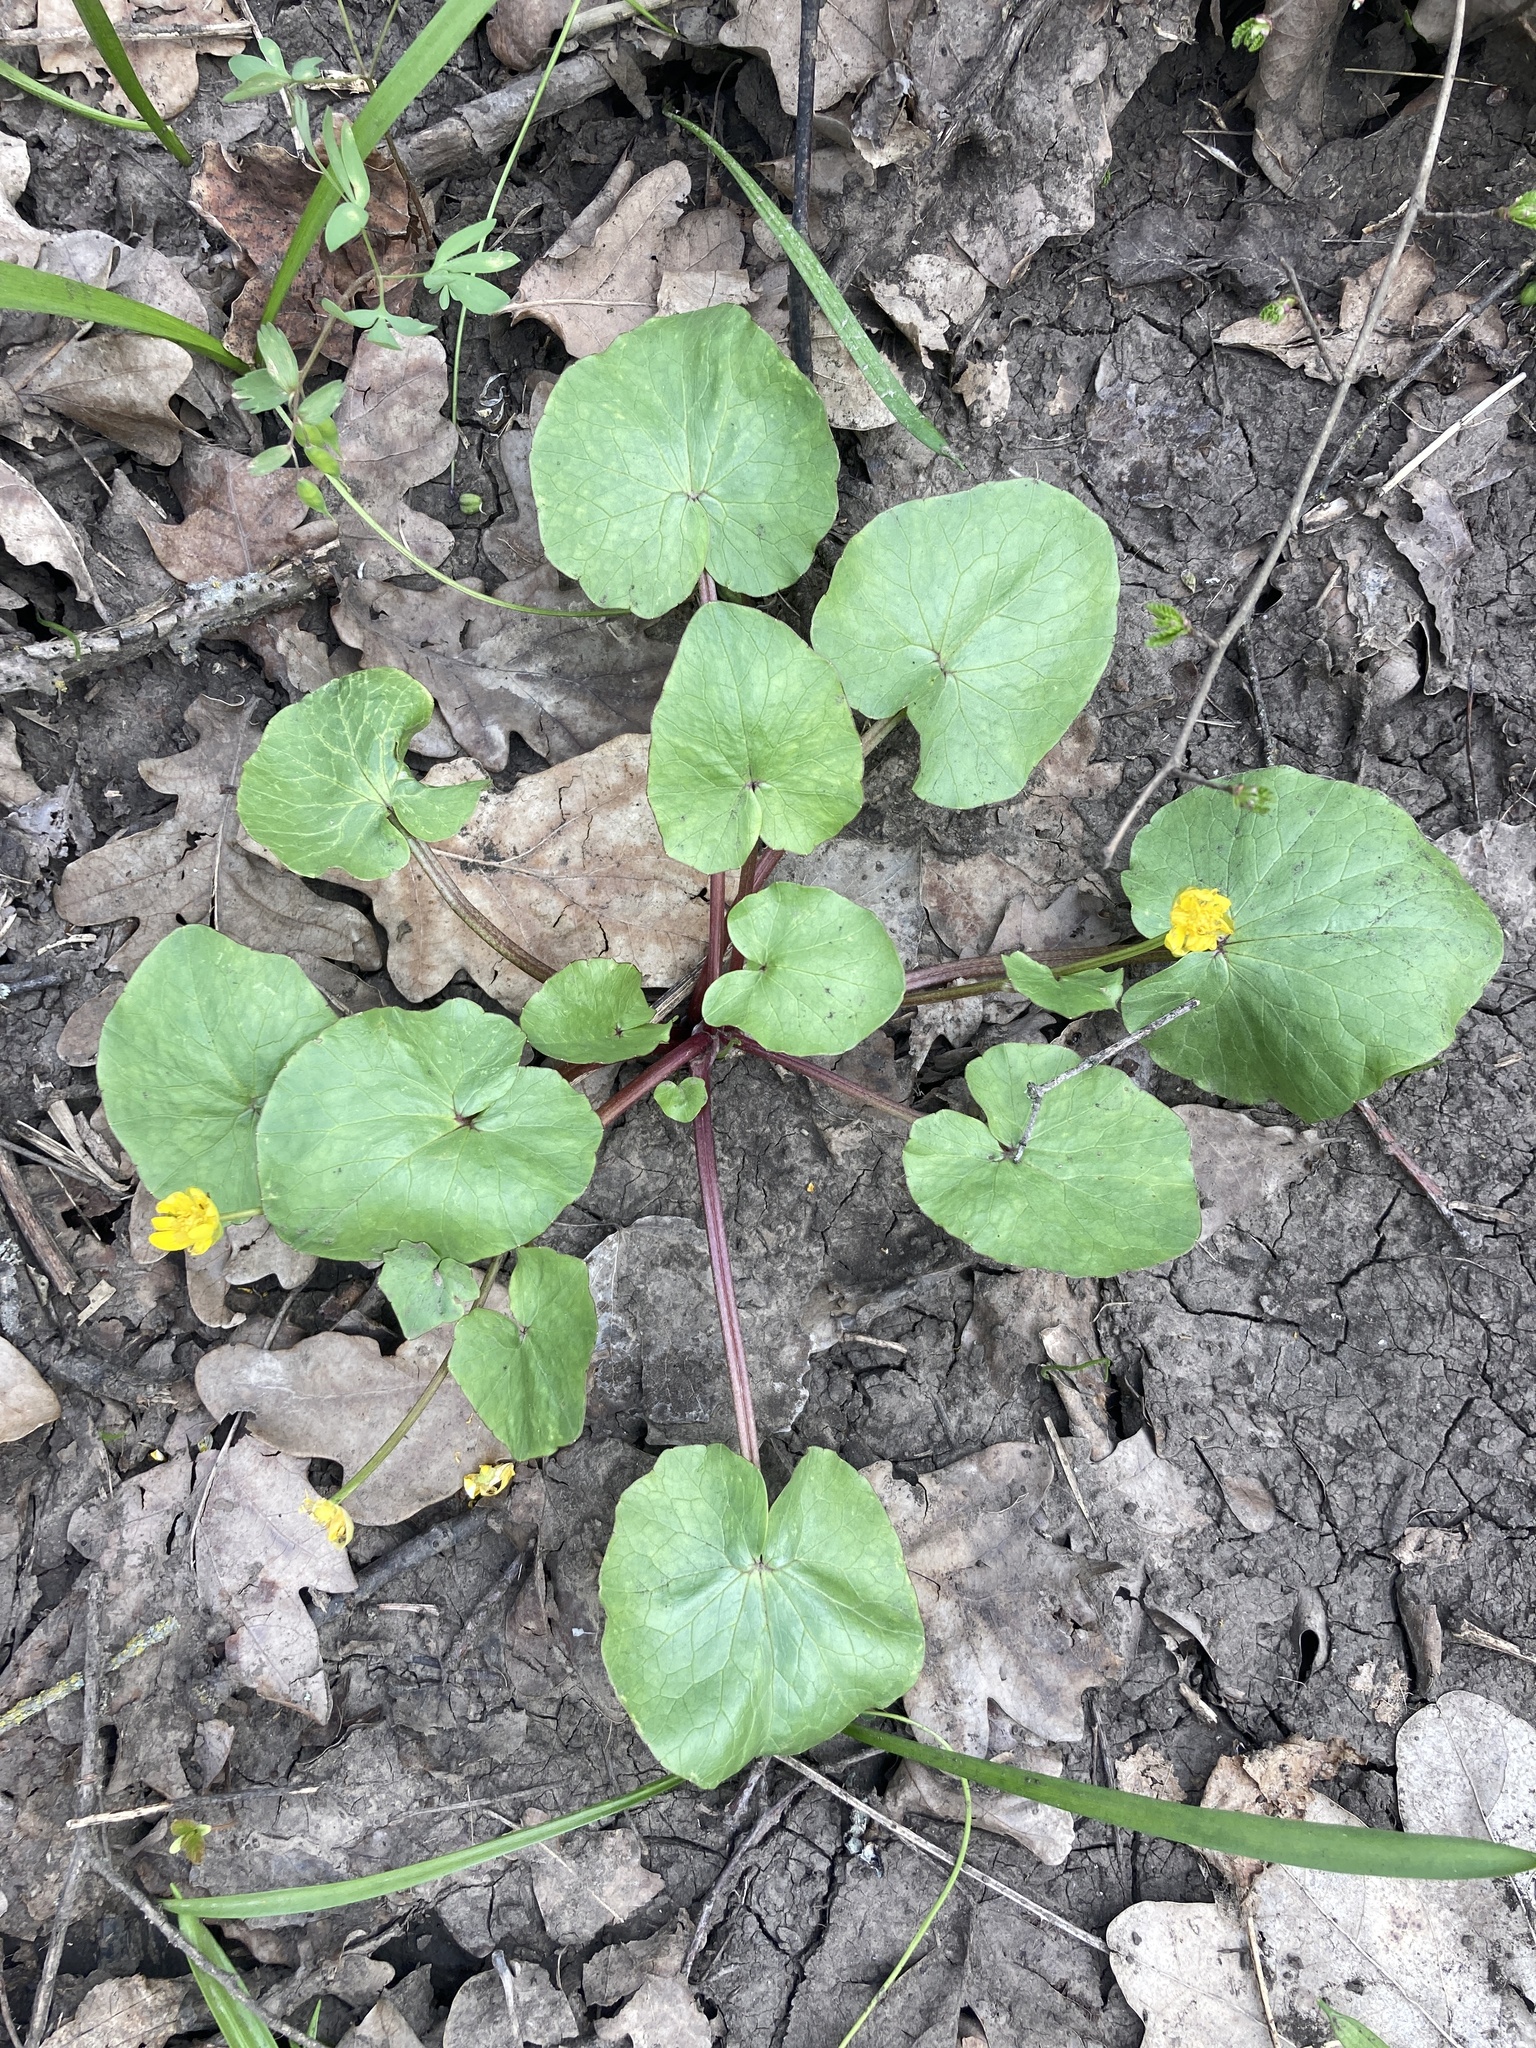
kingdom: Plantae
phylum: Tracheophyta
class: Magnoliopsida
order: Ranunculales
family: Ranunculaceae
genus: Ficaria
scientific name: Ficaria verna
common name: Lesser celandine
